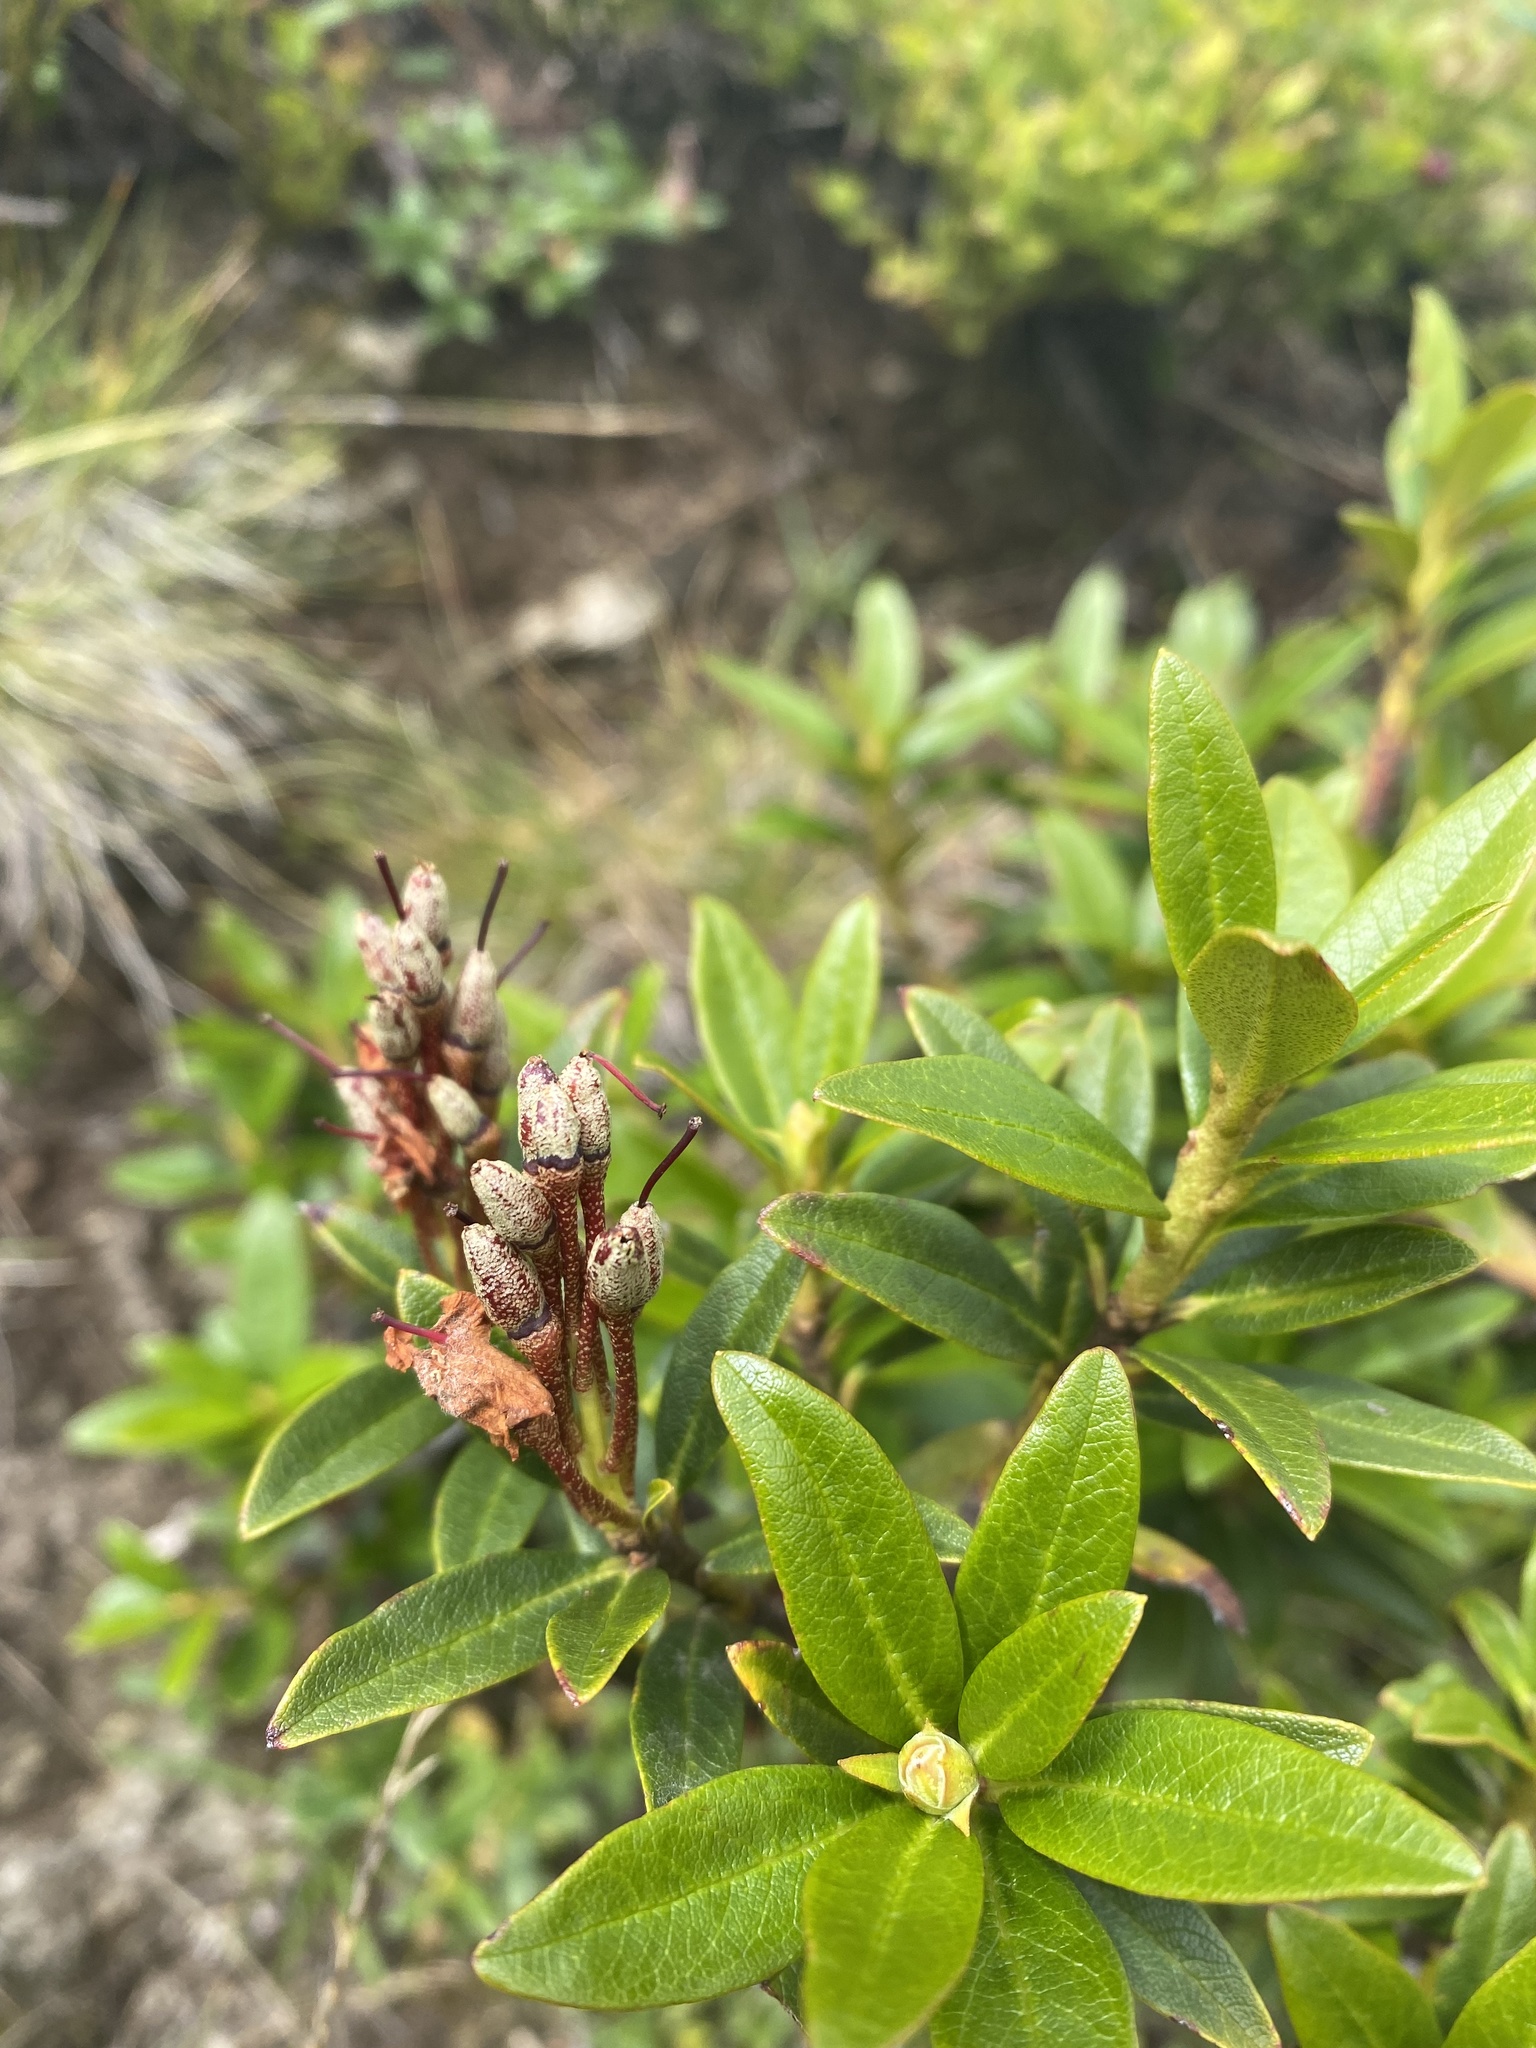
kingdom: Plantae
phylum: Tracheophyta
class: Magnoliopsida
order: Ericales
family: Ericaceae
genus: Rhododendron
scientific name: Rhododendron ferrugineum
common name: Alpenrose
